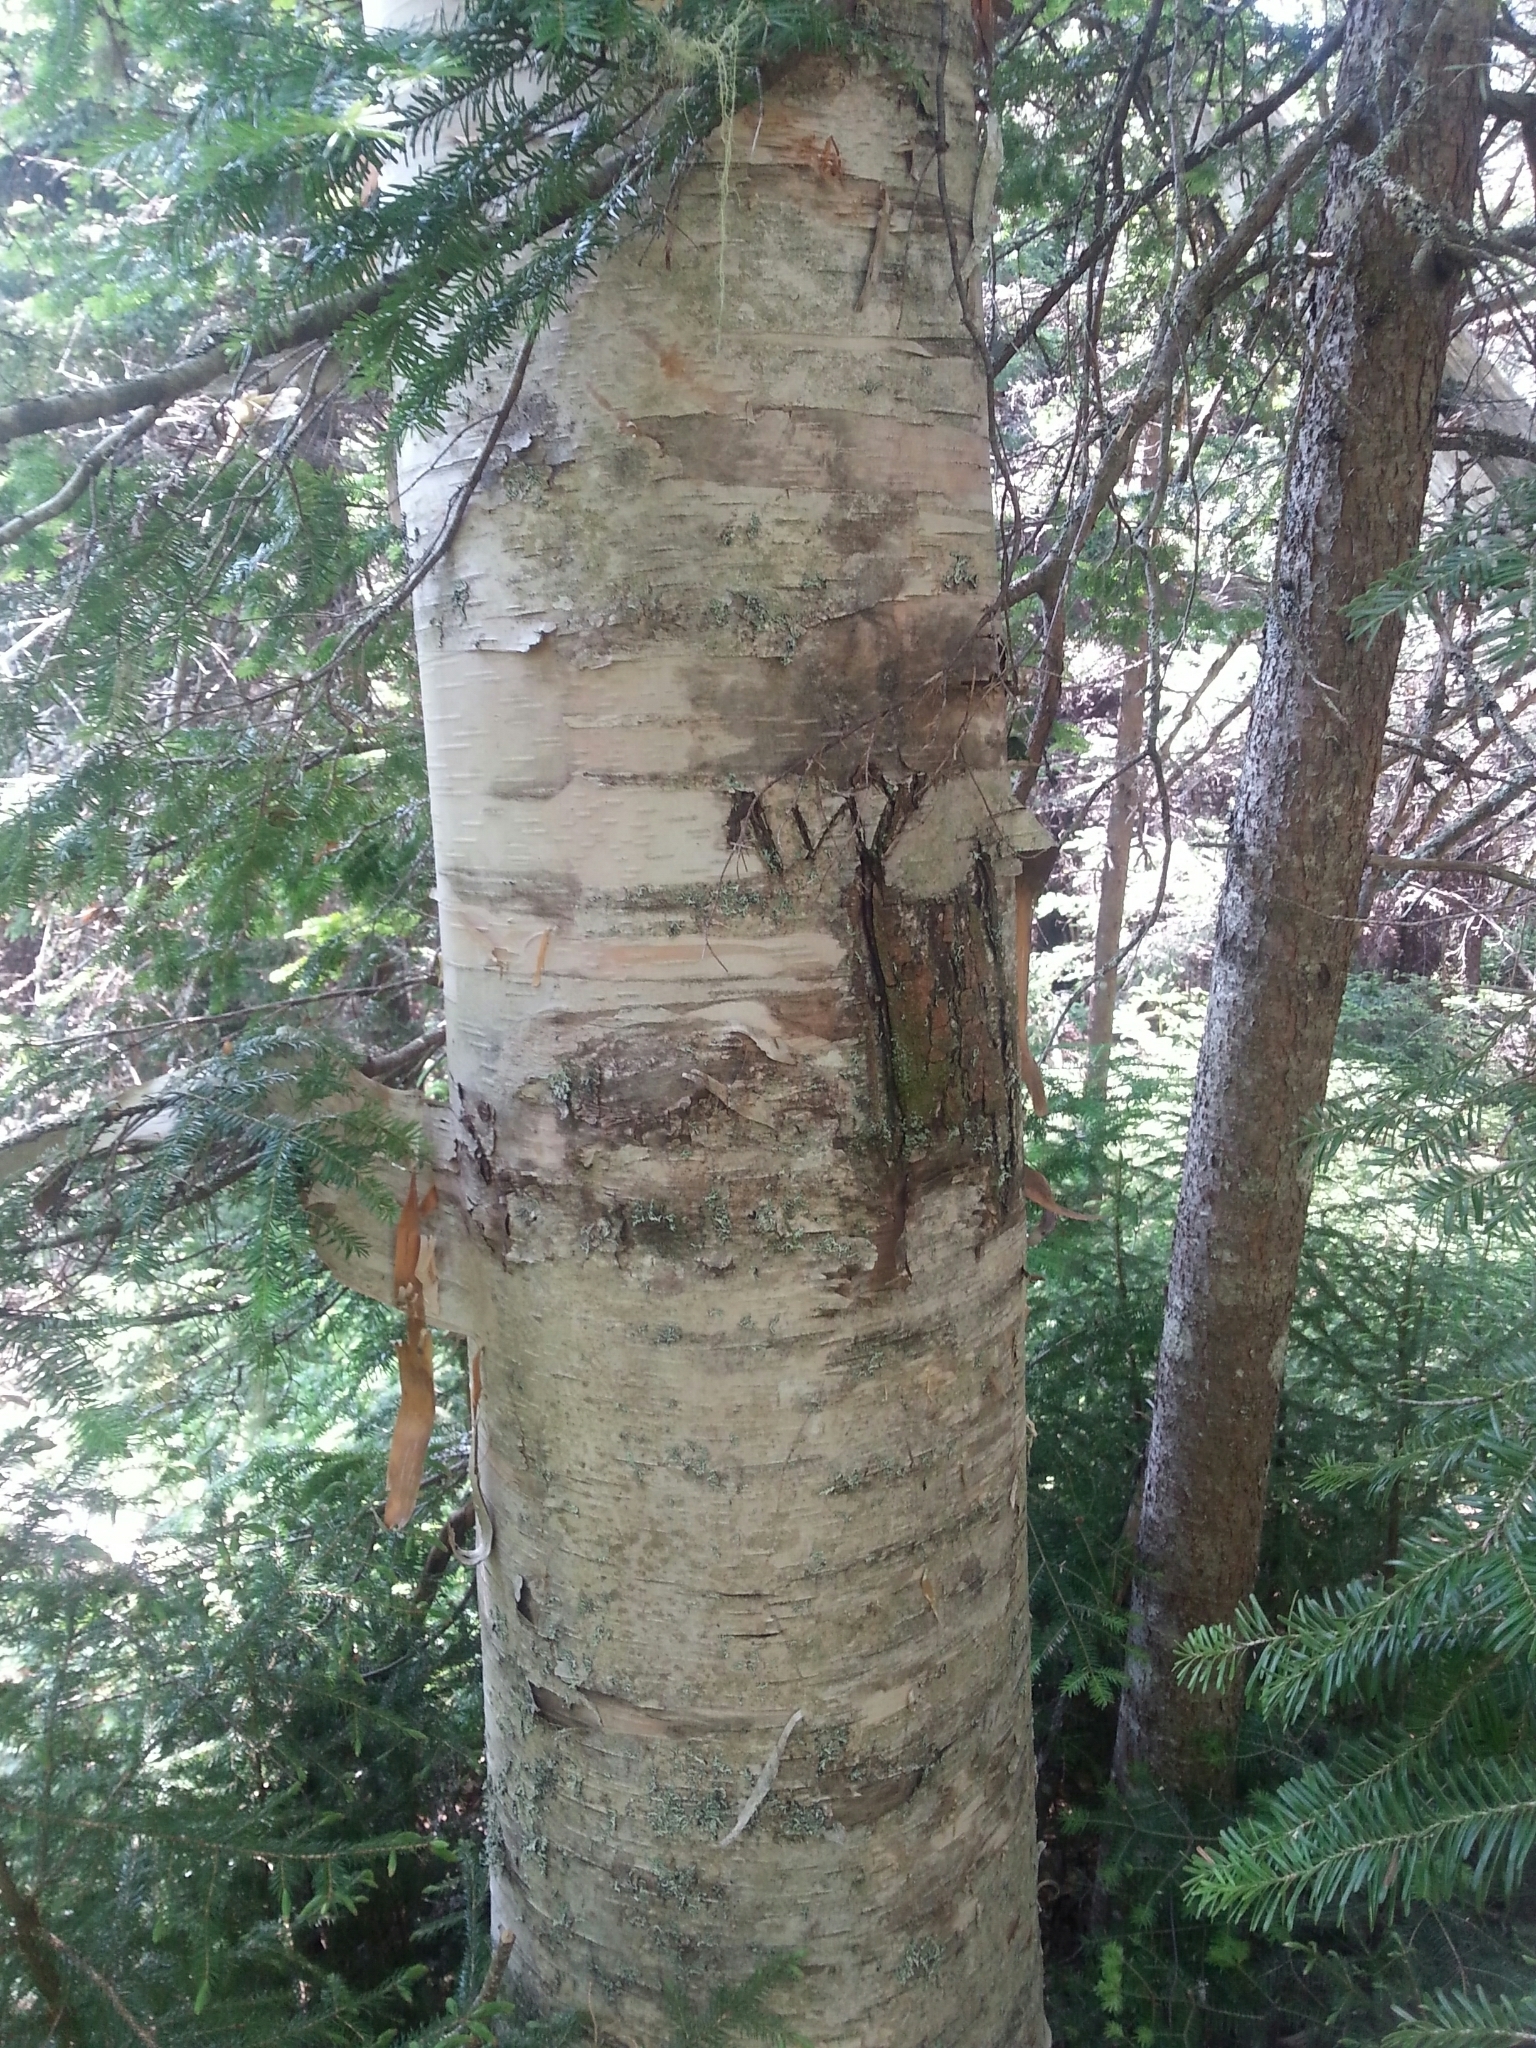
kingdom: Plantae
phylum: Tracheophyta
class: Magnoliopsida
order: Fagales
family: Betulaceae
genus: Betula
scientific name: Betula papyrifera
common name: Paper birch
